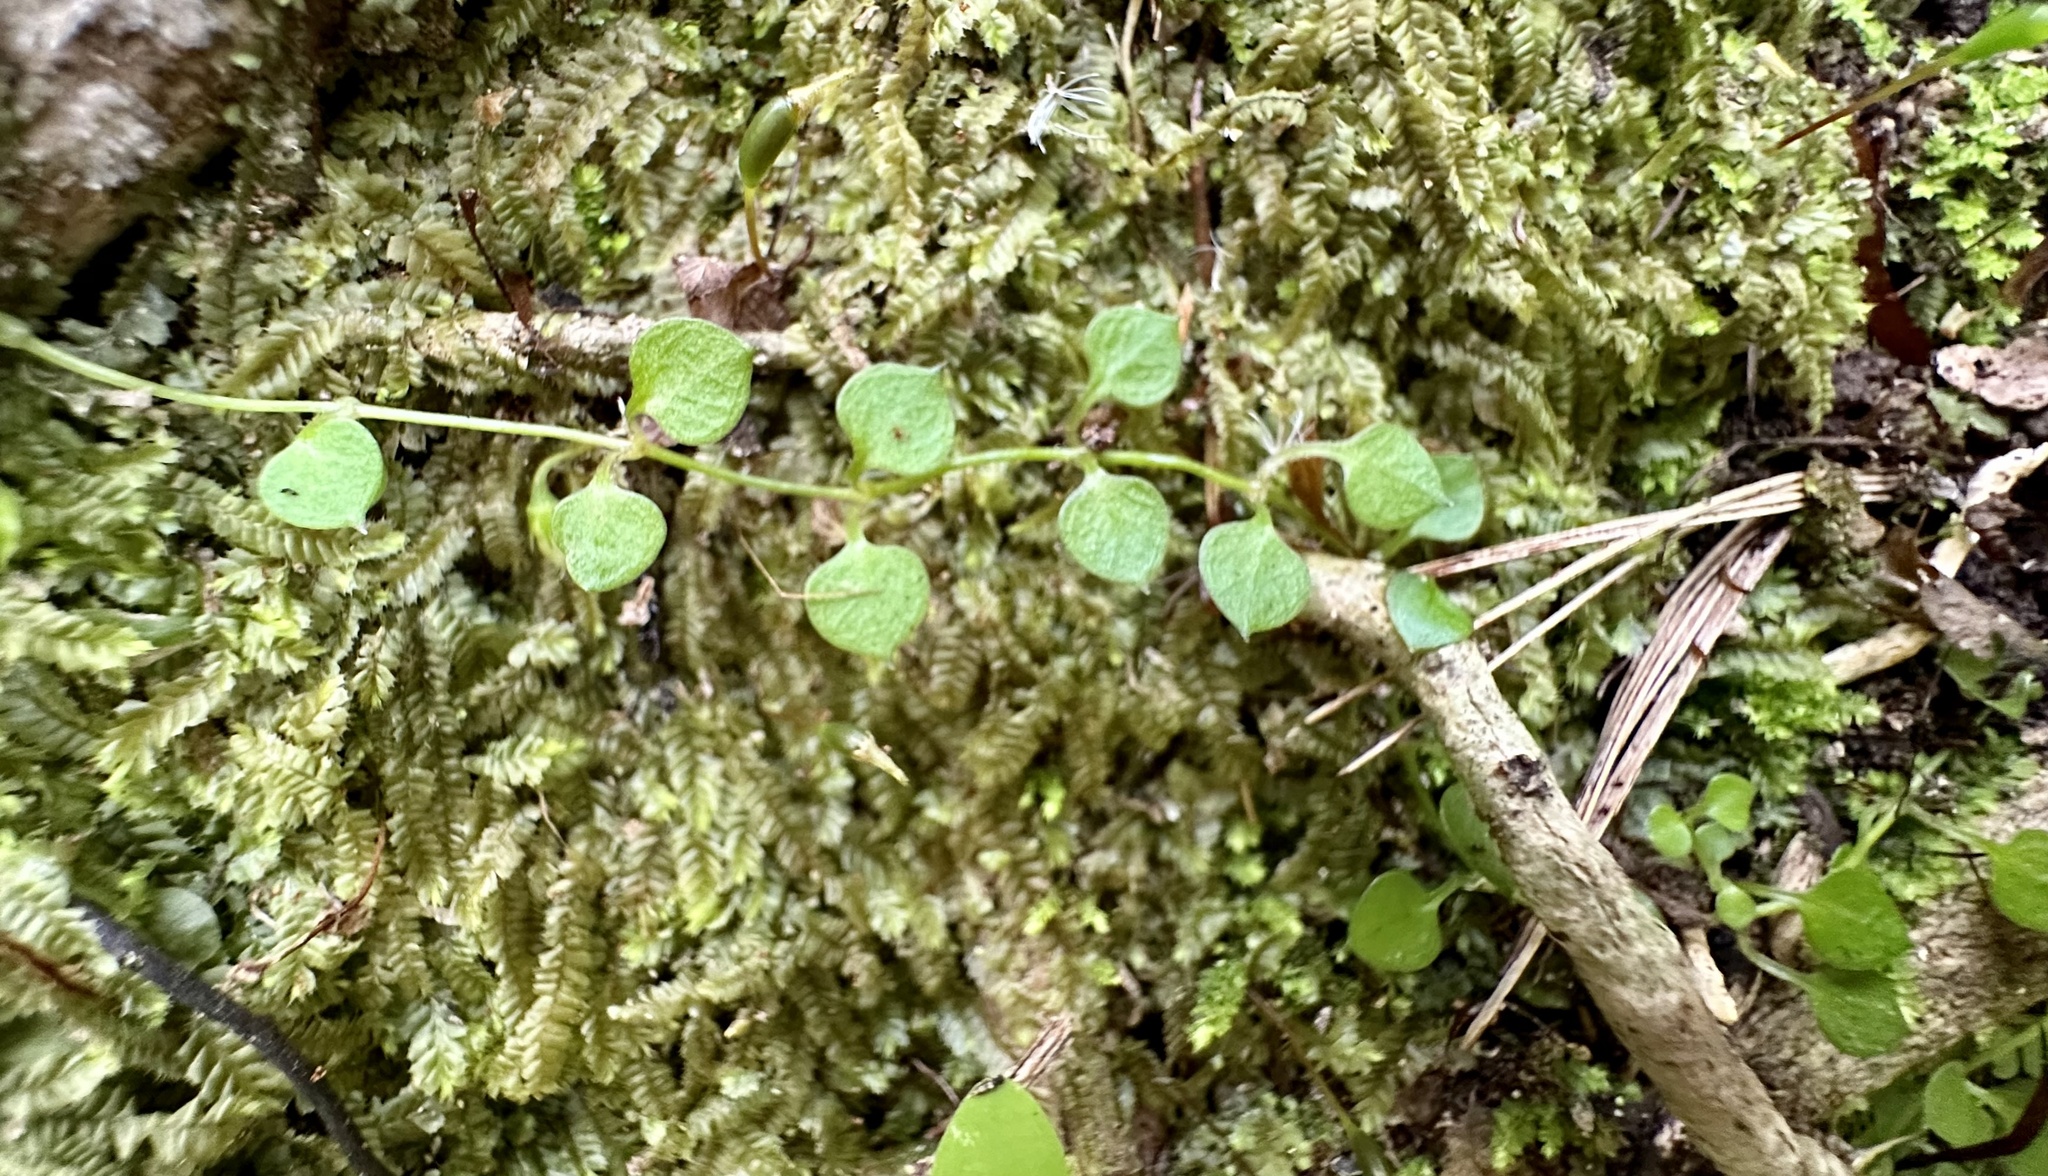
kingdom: Plantae
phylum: Tracheophyta
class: Magnoliopsida
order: Caryophyllales
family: Caryophyllaceae
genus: Stellaria
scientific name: Stellaria parviflora
